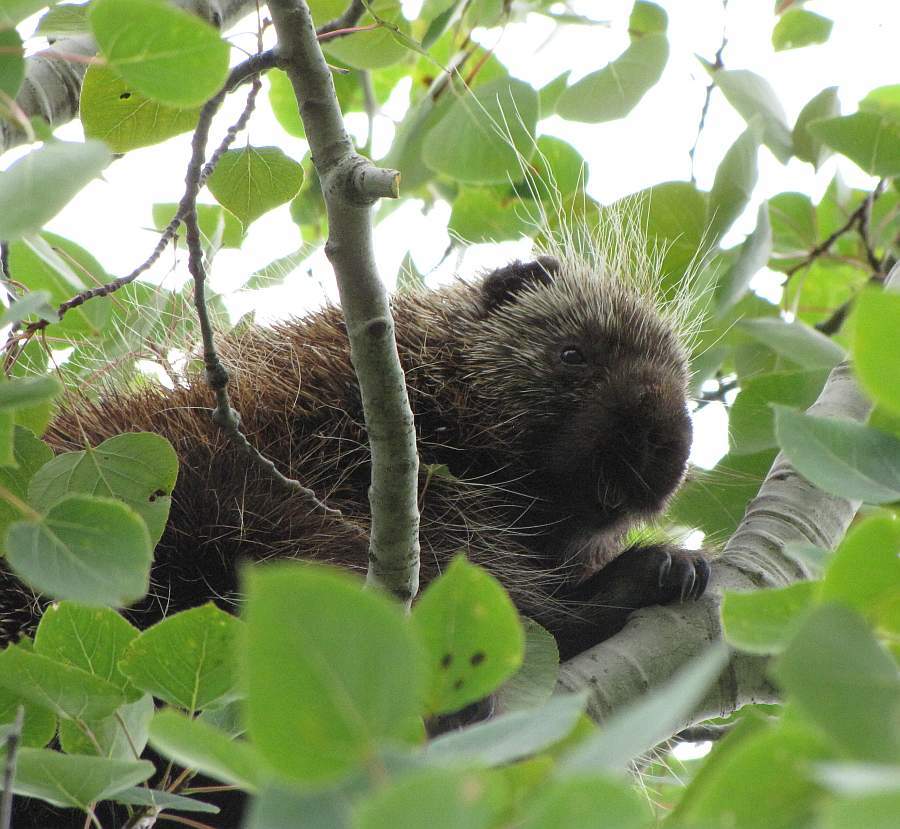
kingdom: Animalia
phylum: Chordata
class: Mammalia
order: Rodentia
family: Erethizontidae
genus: Erethizon
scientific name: Erethizon dorsatus
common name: North american porcupine
